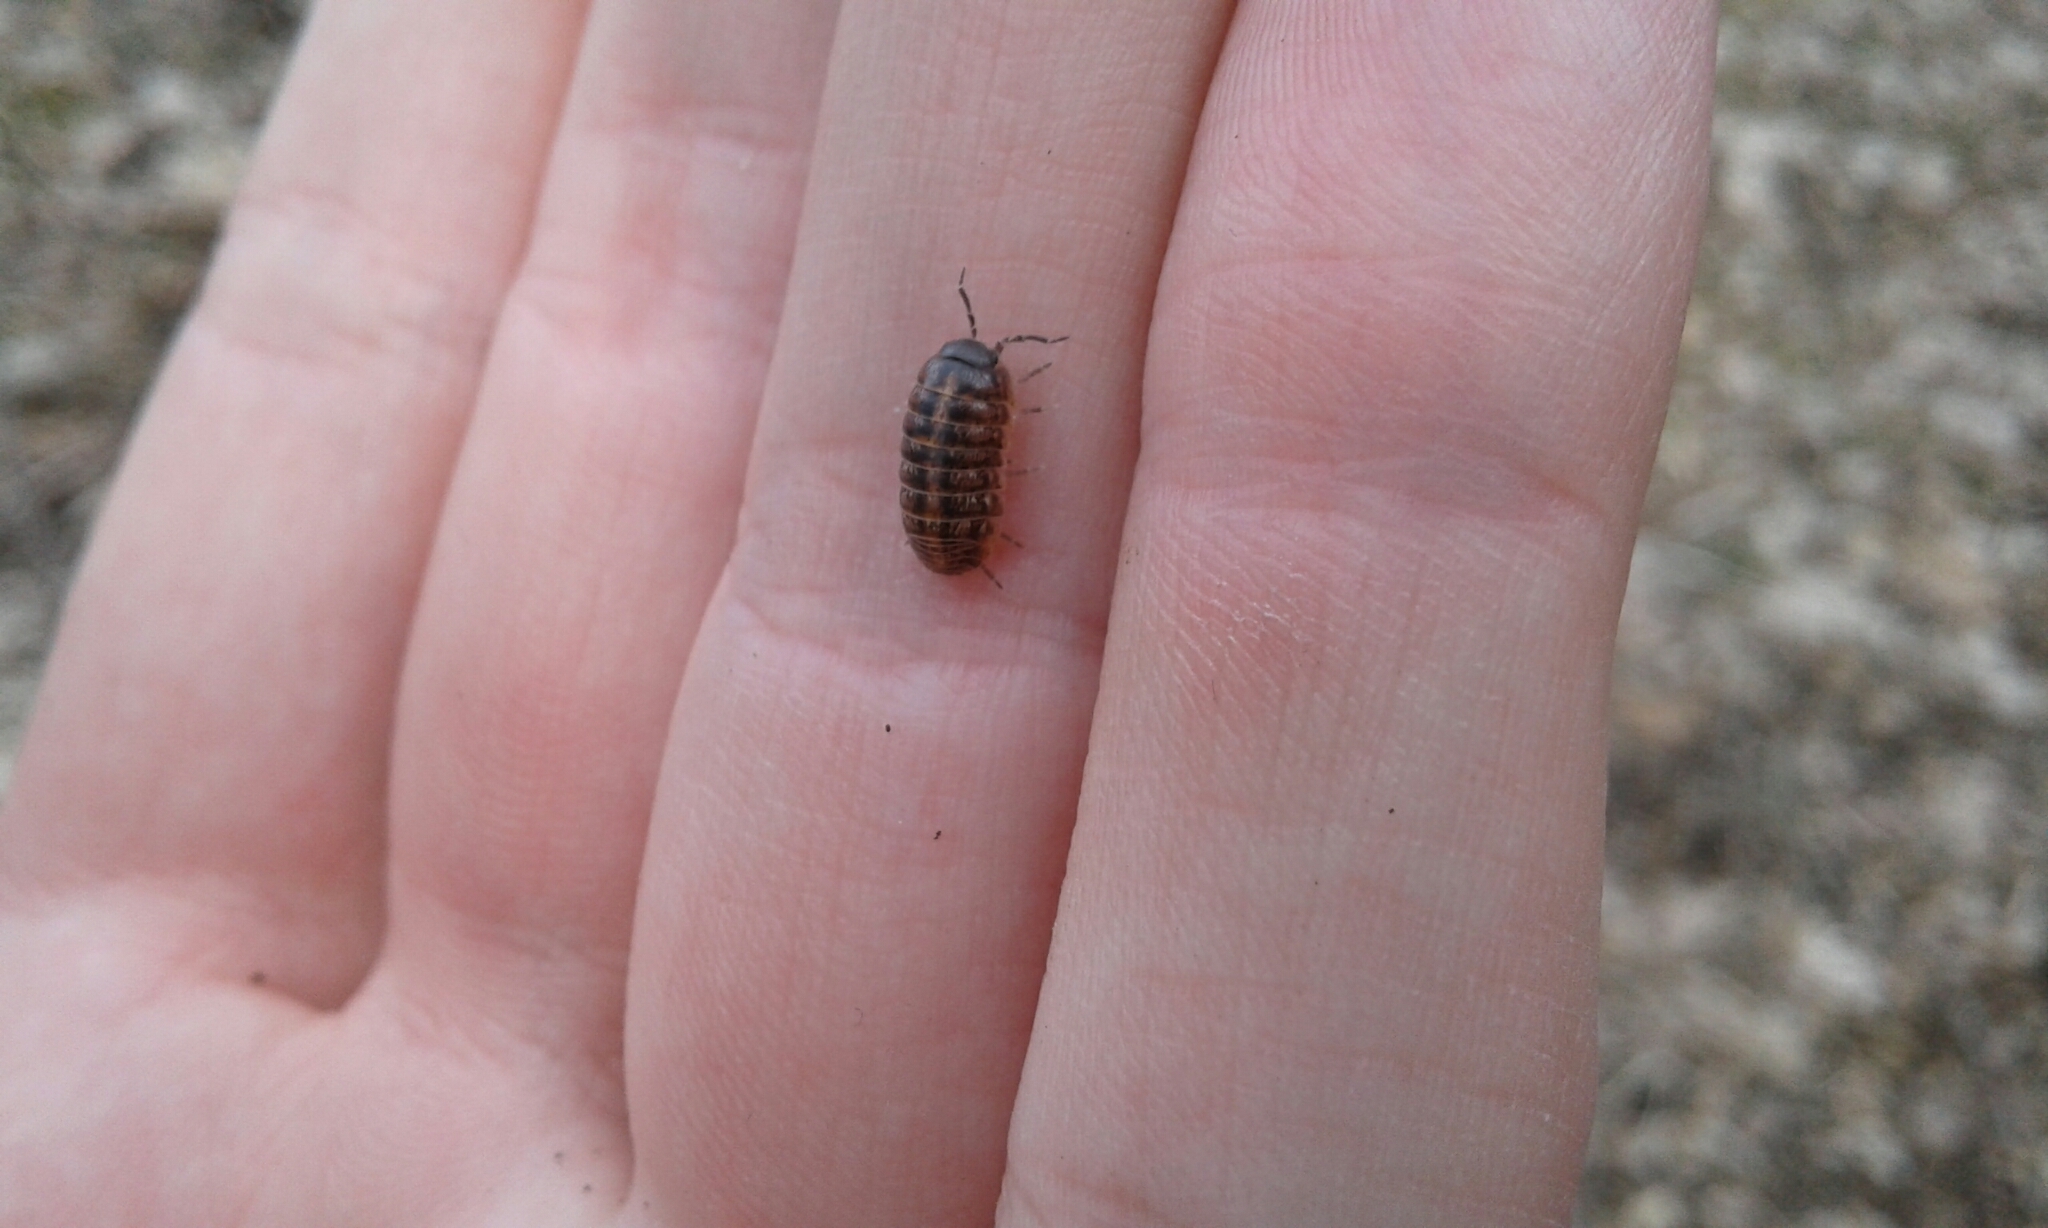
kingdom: Animalia
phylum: Arthropoda
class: Malacostraca
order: Isopoda
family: Armadillidiidae
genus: Armadillidium
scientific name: Armadillidium vulgare
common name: Common pill woodlouse
